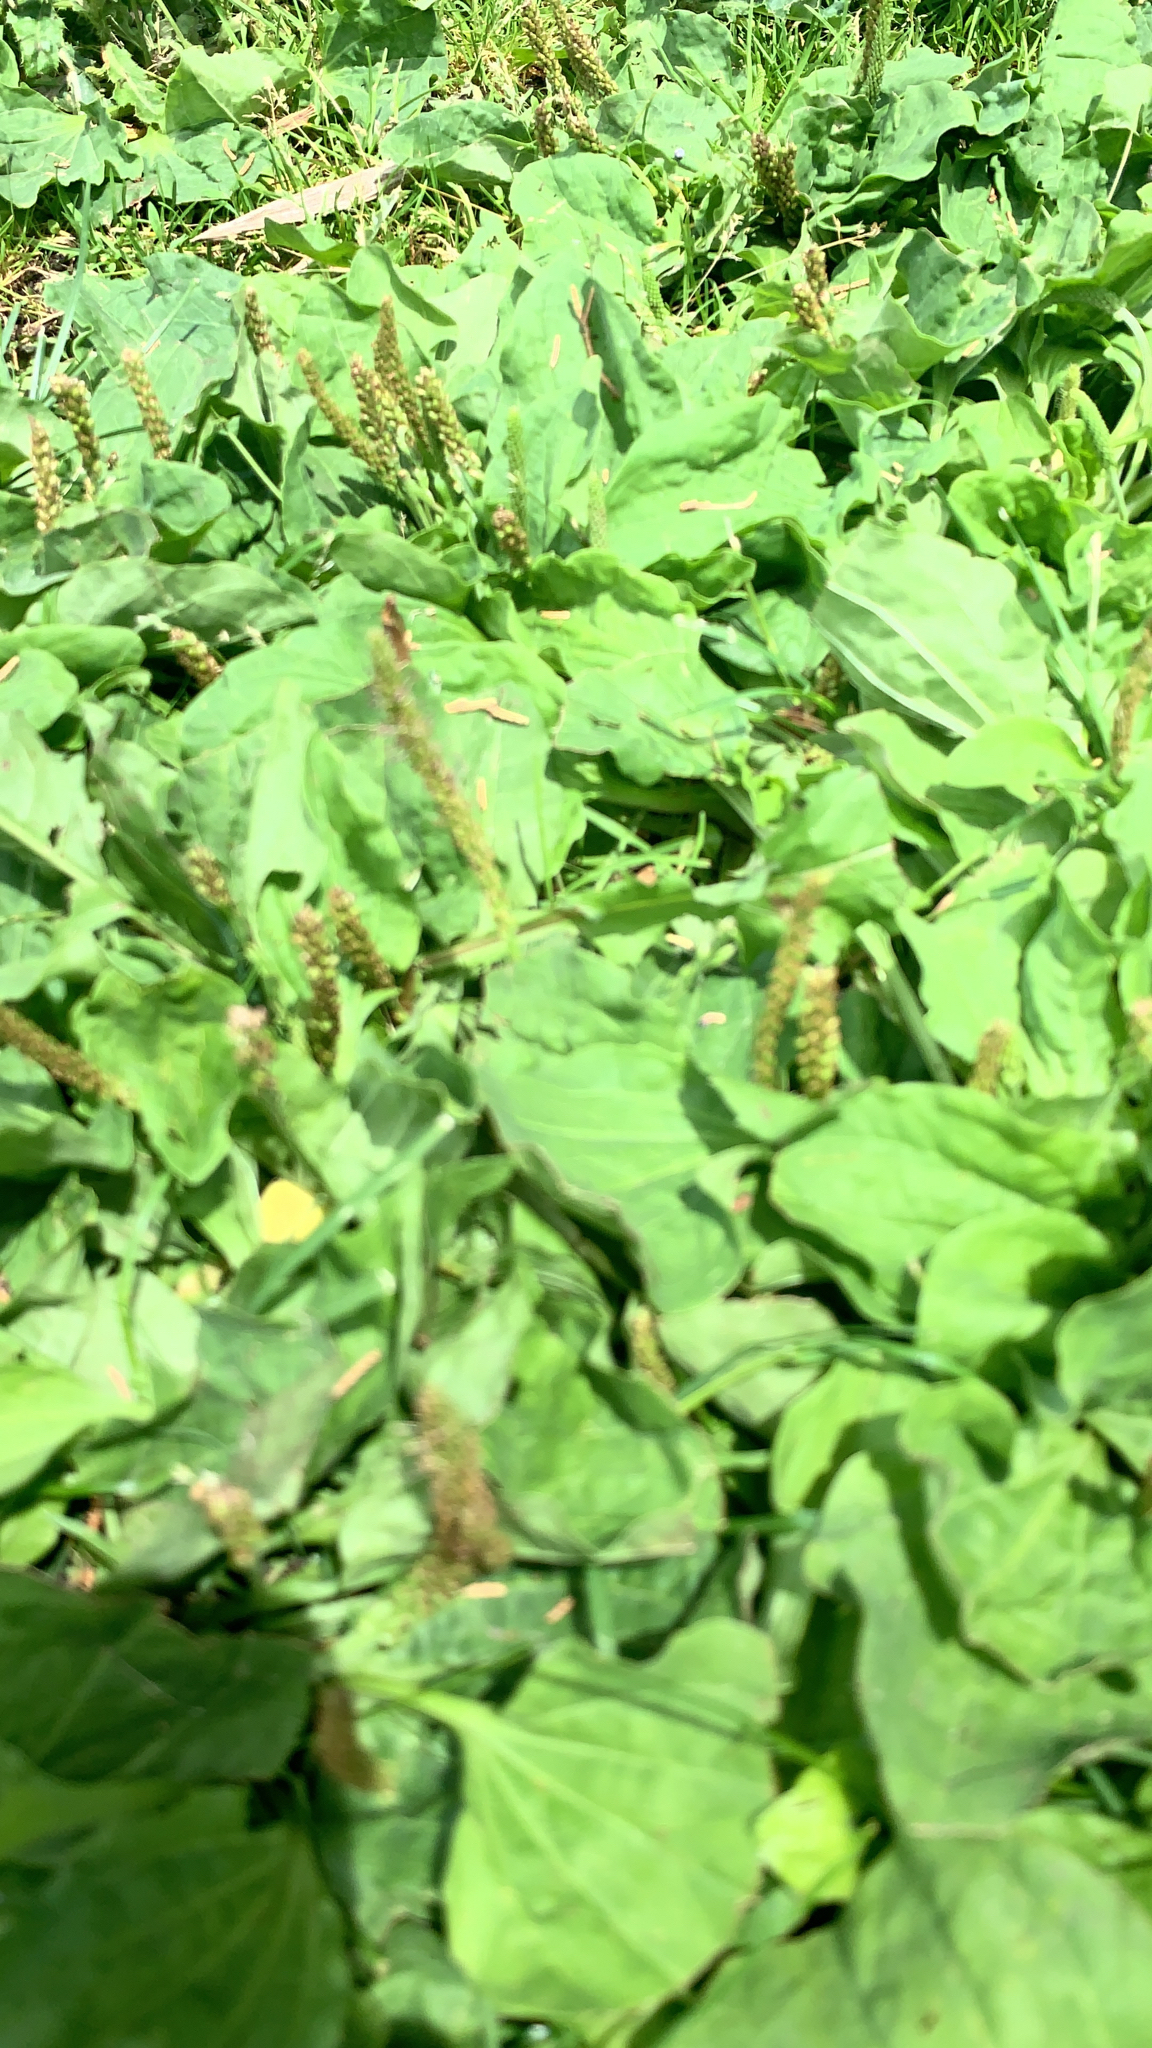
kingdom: Plantae
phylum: Tracheophyta
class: Magnoliopsida
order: Lamiales
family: Plantaginaceae
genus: Plantago
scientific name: Plantago major
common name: Common plantain
